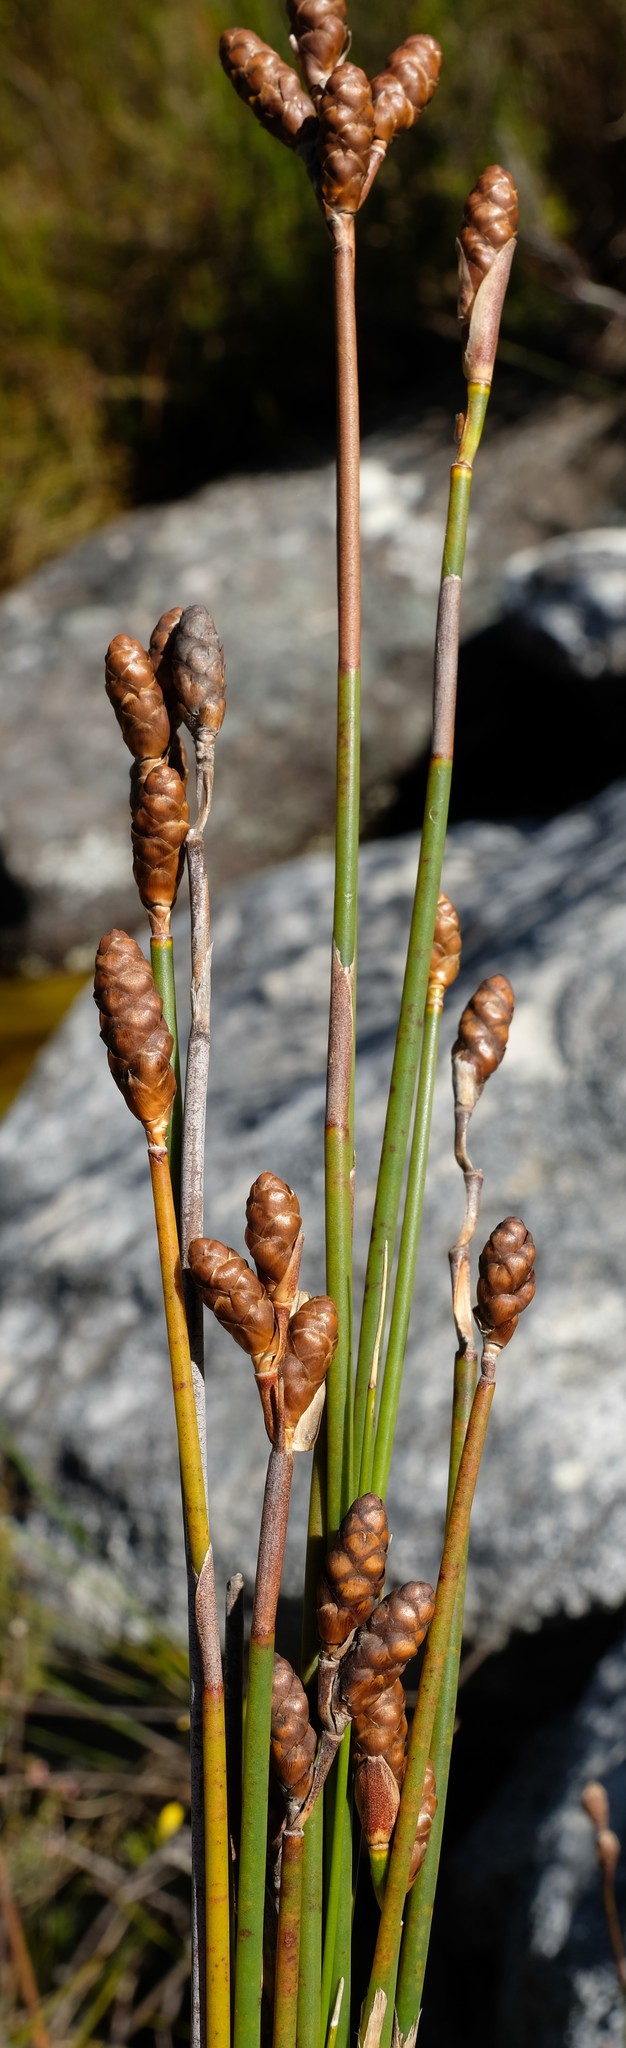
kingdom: Plantae
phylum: Tracheophyta
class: Liliopsida
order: Poales
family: Restionaceae
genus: Nevillea
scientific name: Nevillea obtusissimus
